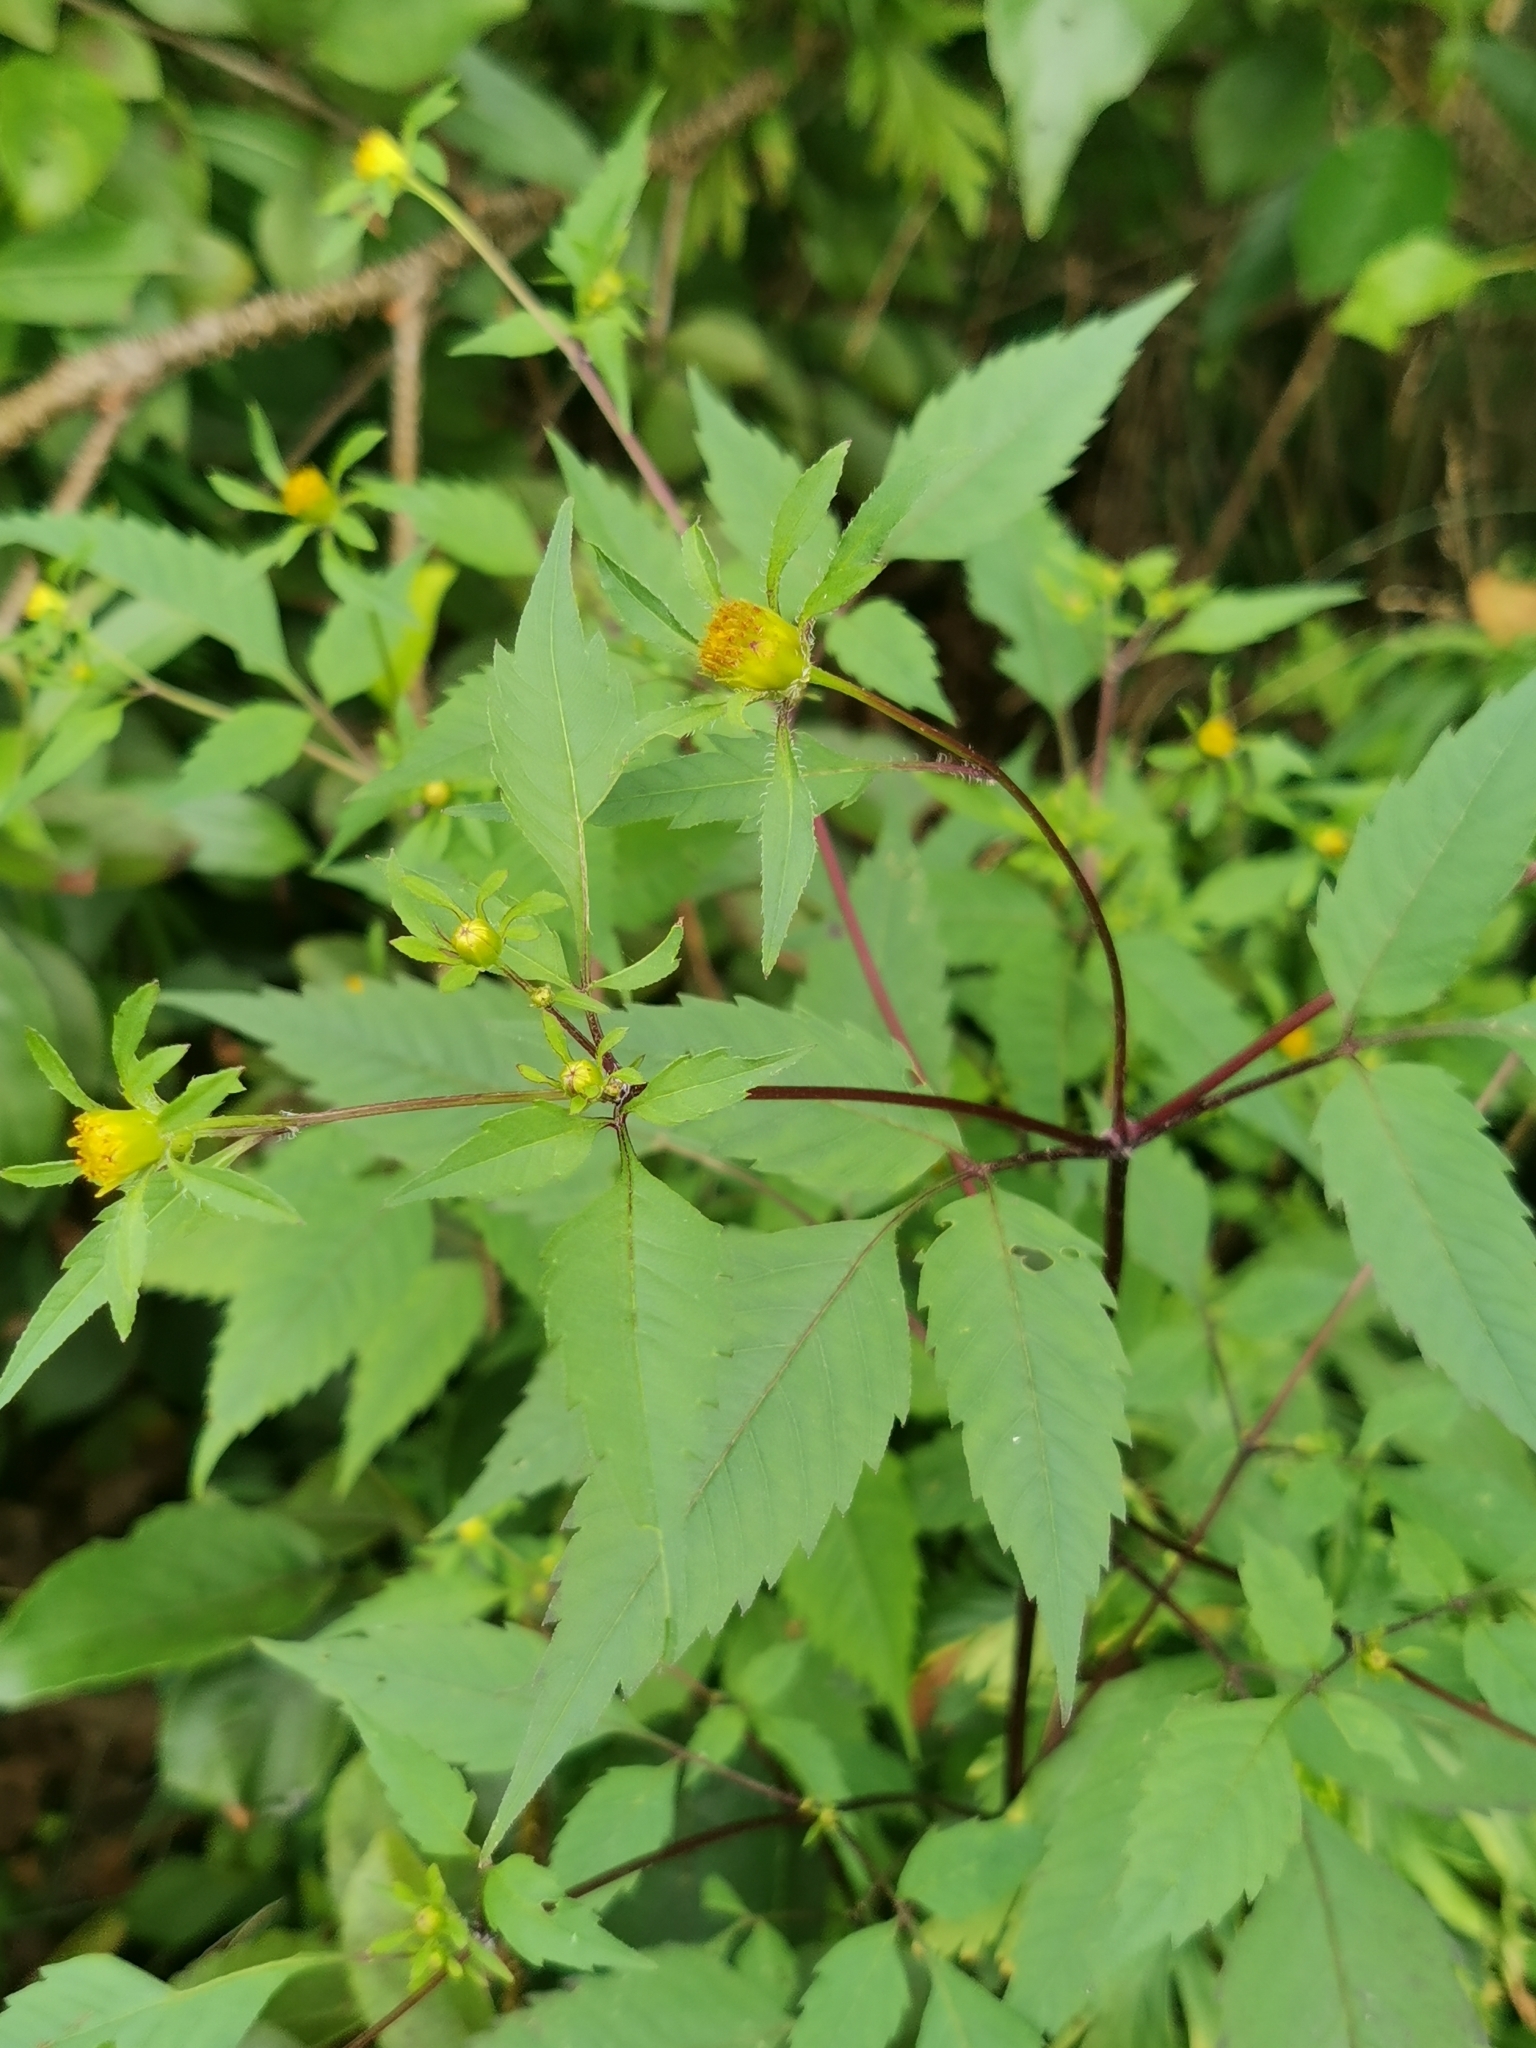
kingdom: Plantae
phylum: Tracheophyta
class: Magnoliopsida
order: Asterales
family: Asteraceae
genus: Bidens
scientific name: Bidens frondosa
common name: Beggarticks
